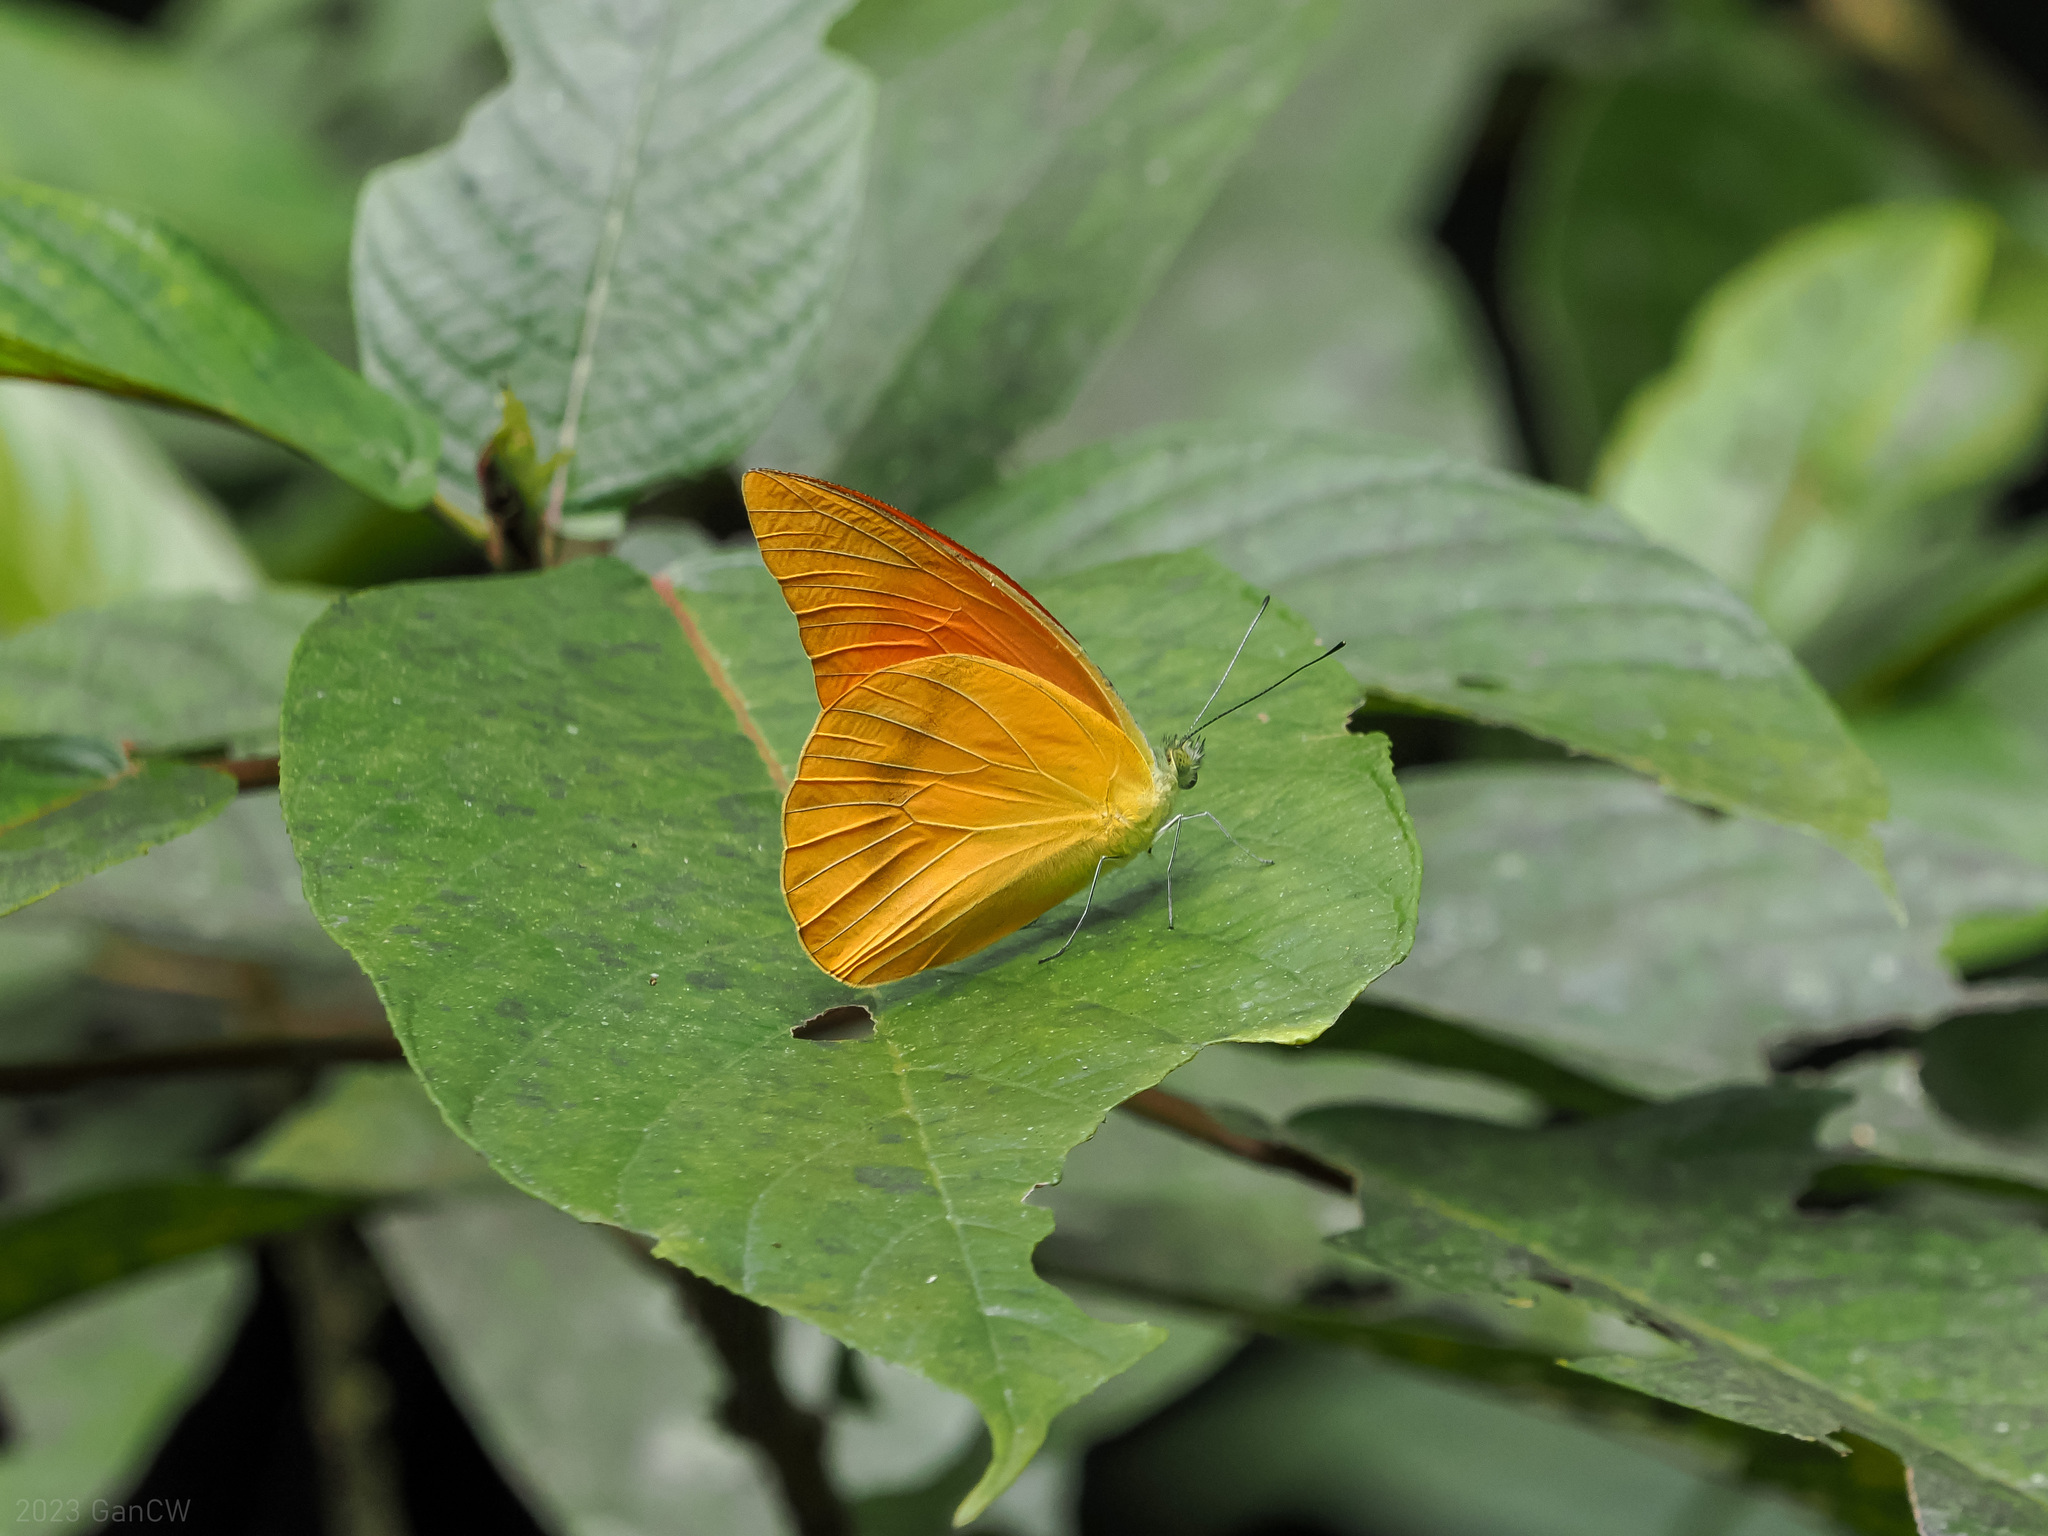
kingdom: Animalia
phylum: Arthropoda
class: Insecta
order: Lepidoptera
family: Pieridae
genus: Appias
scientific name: Appias zarinda
